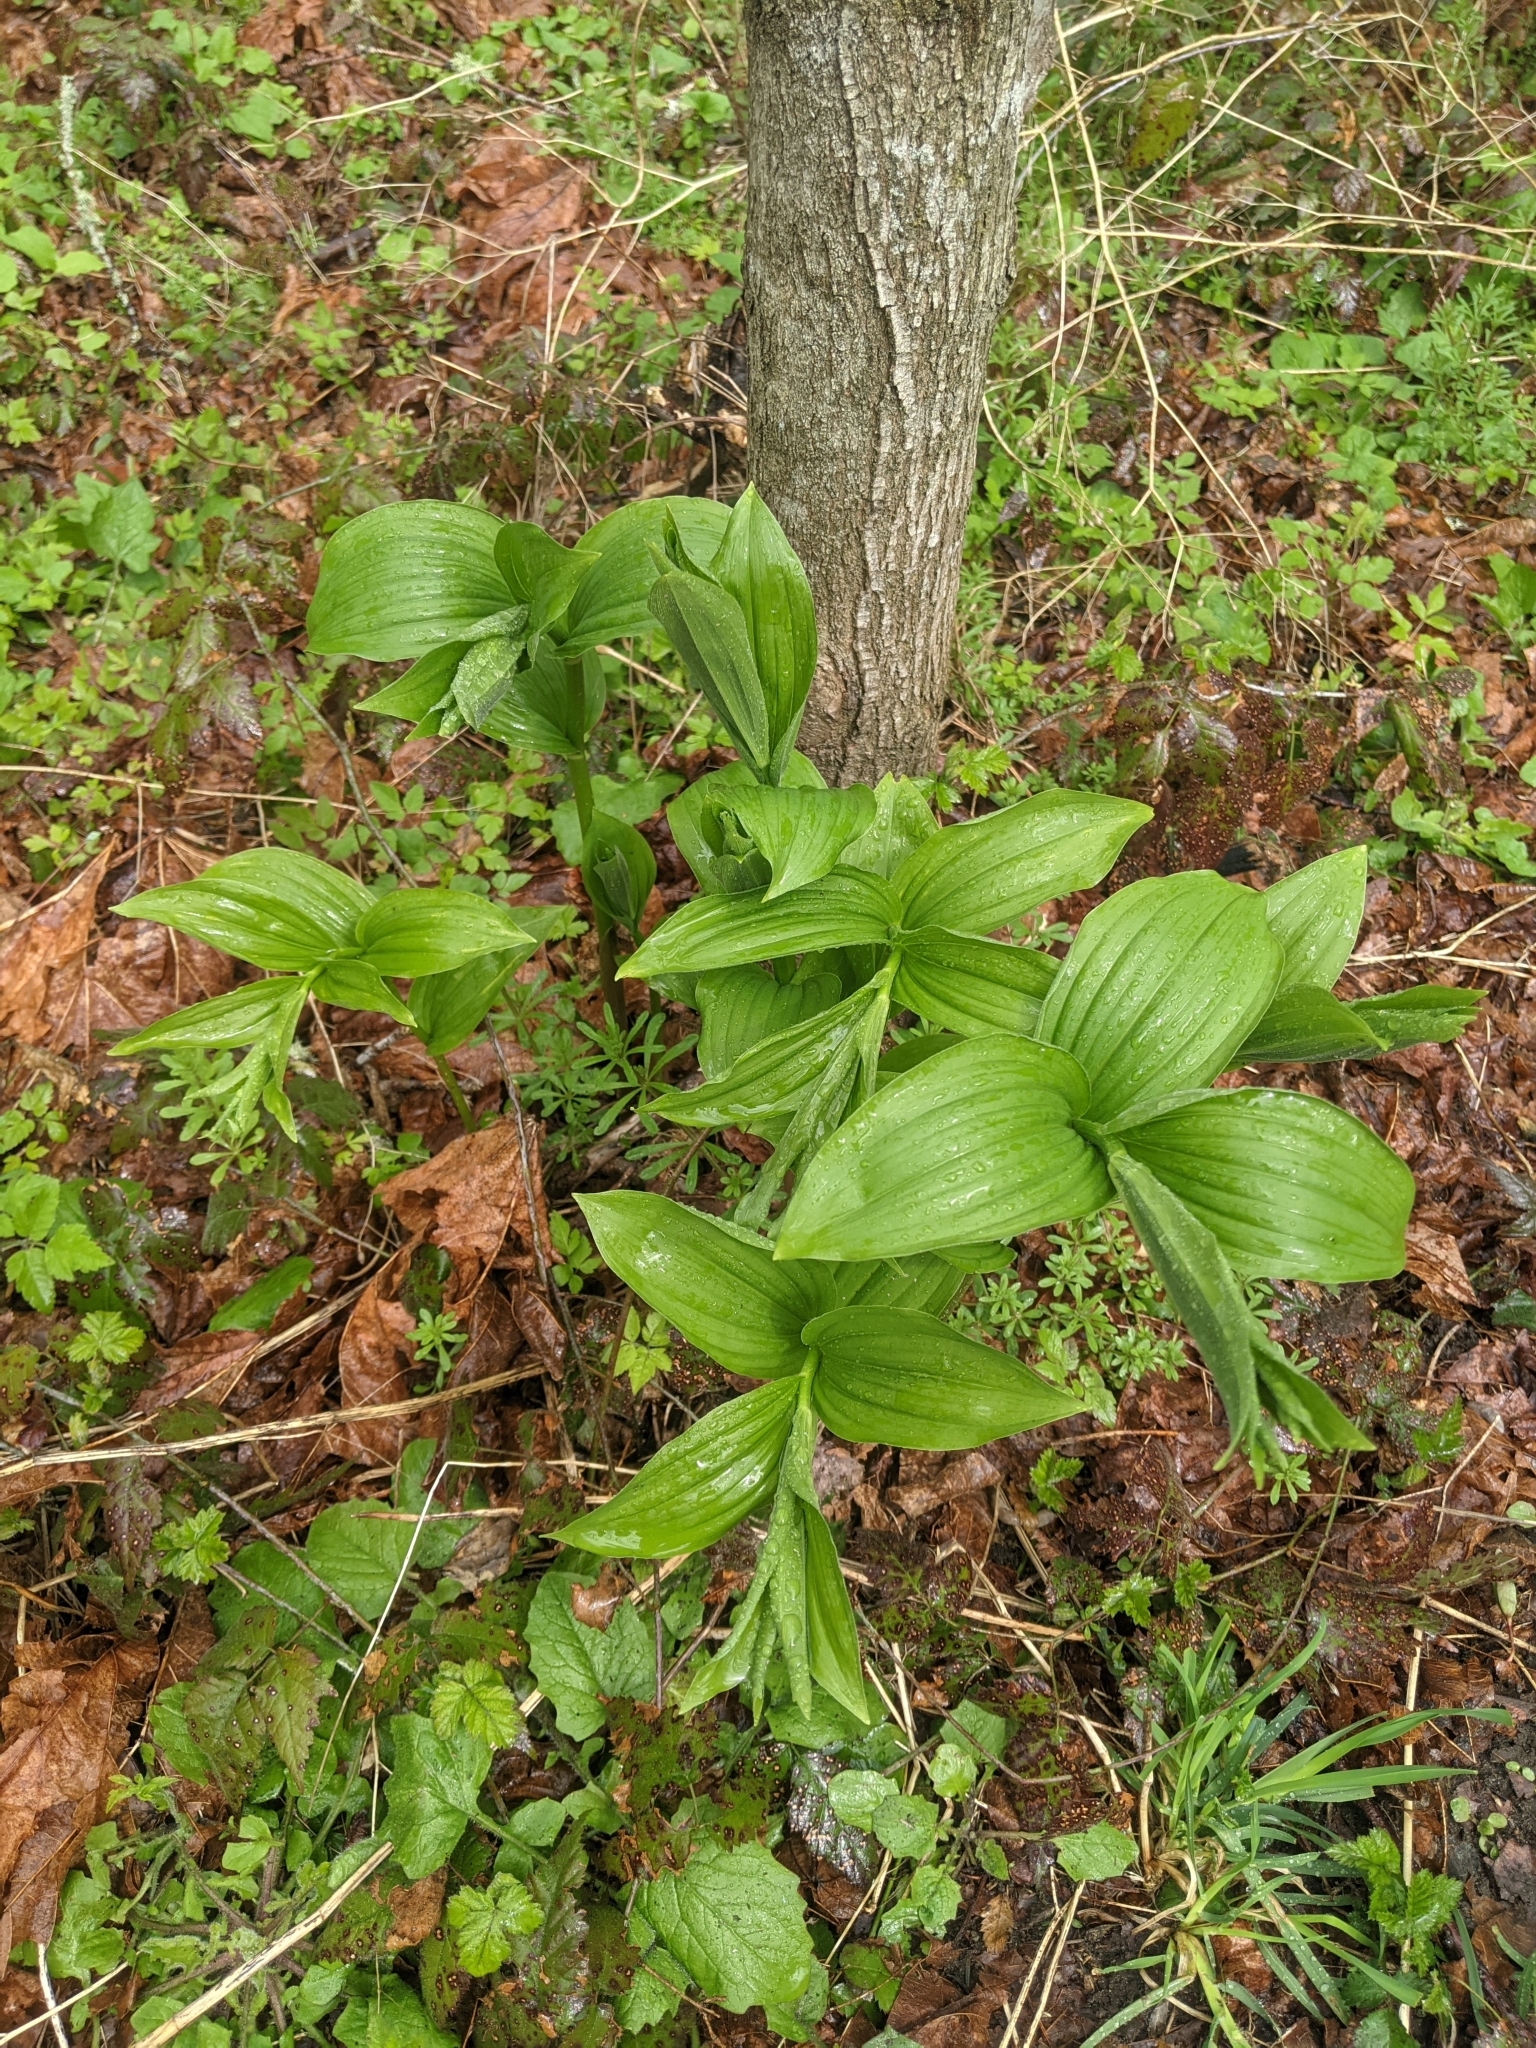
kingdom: Plantae
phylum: Tracheophyta
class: Liliopsida
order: Asparagales
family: Asparagaceae
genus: Maianthemum
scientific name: Maianthemum racemosum
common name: False spikenard
